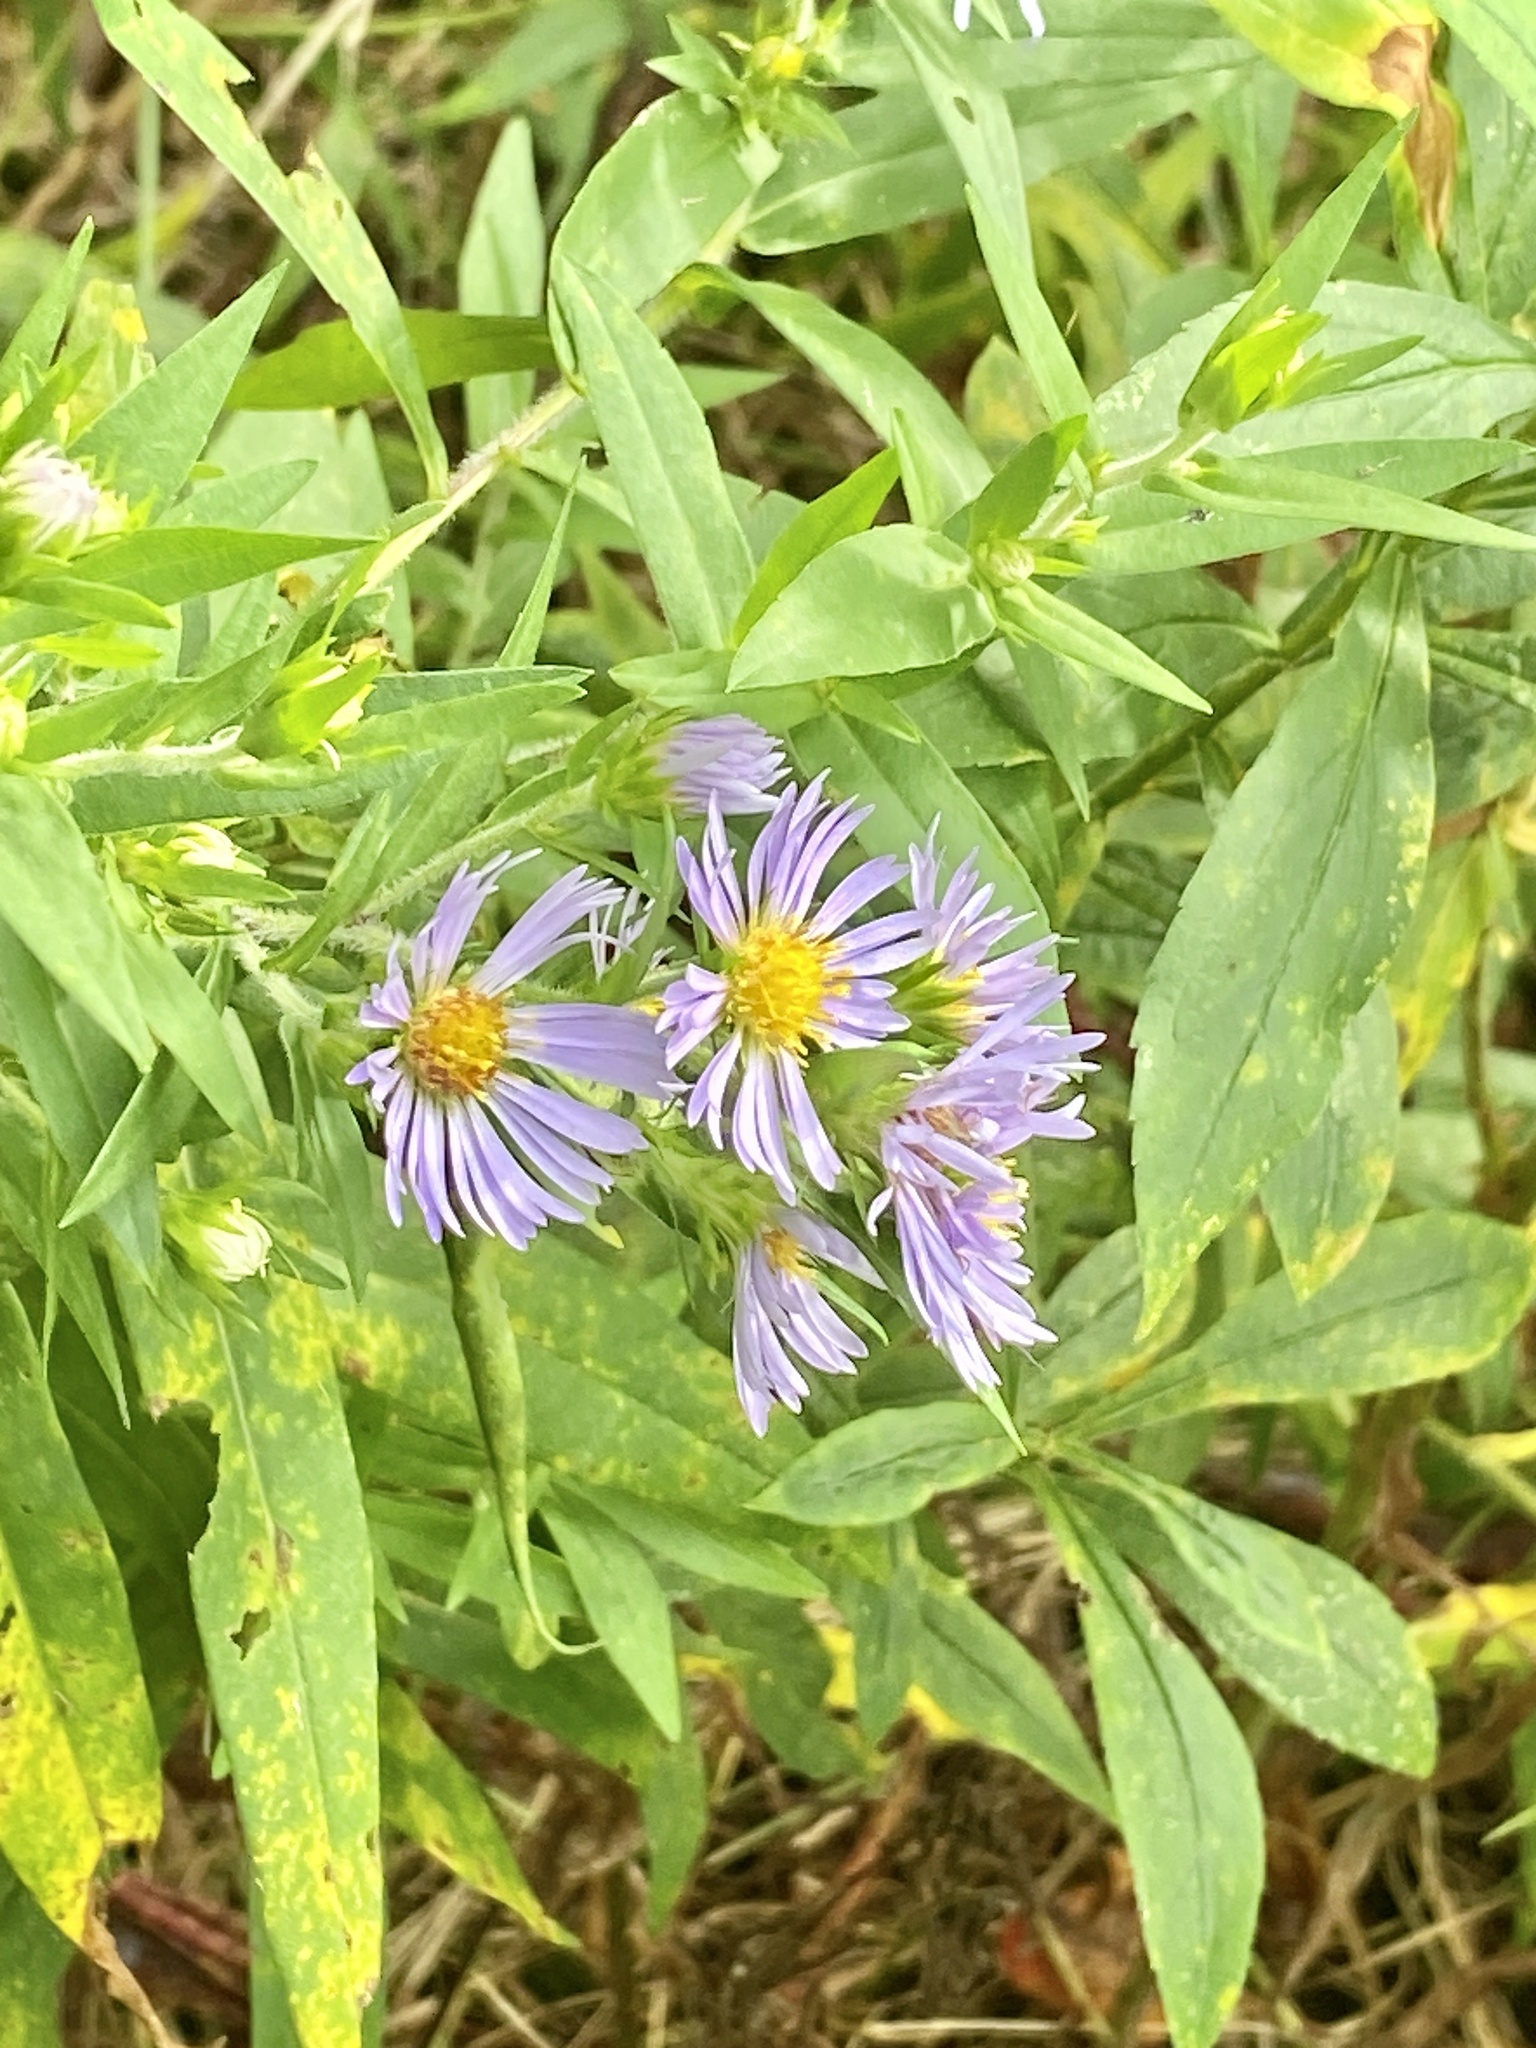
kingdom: Plantae
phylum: Tracheophyta
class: Magnoliopsida
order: Asterales
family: Asteraceae
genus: Symphyotrichum
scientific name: Symphyotrichum puniceum
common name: Bog aster
